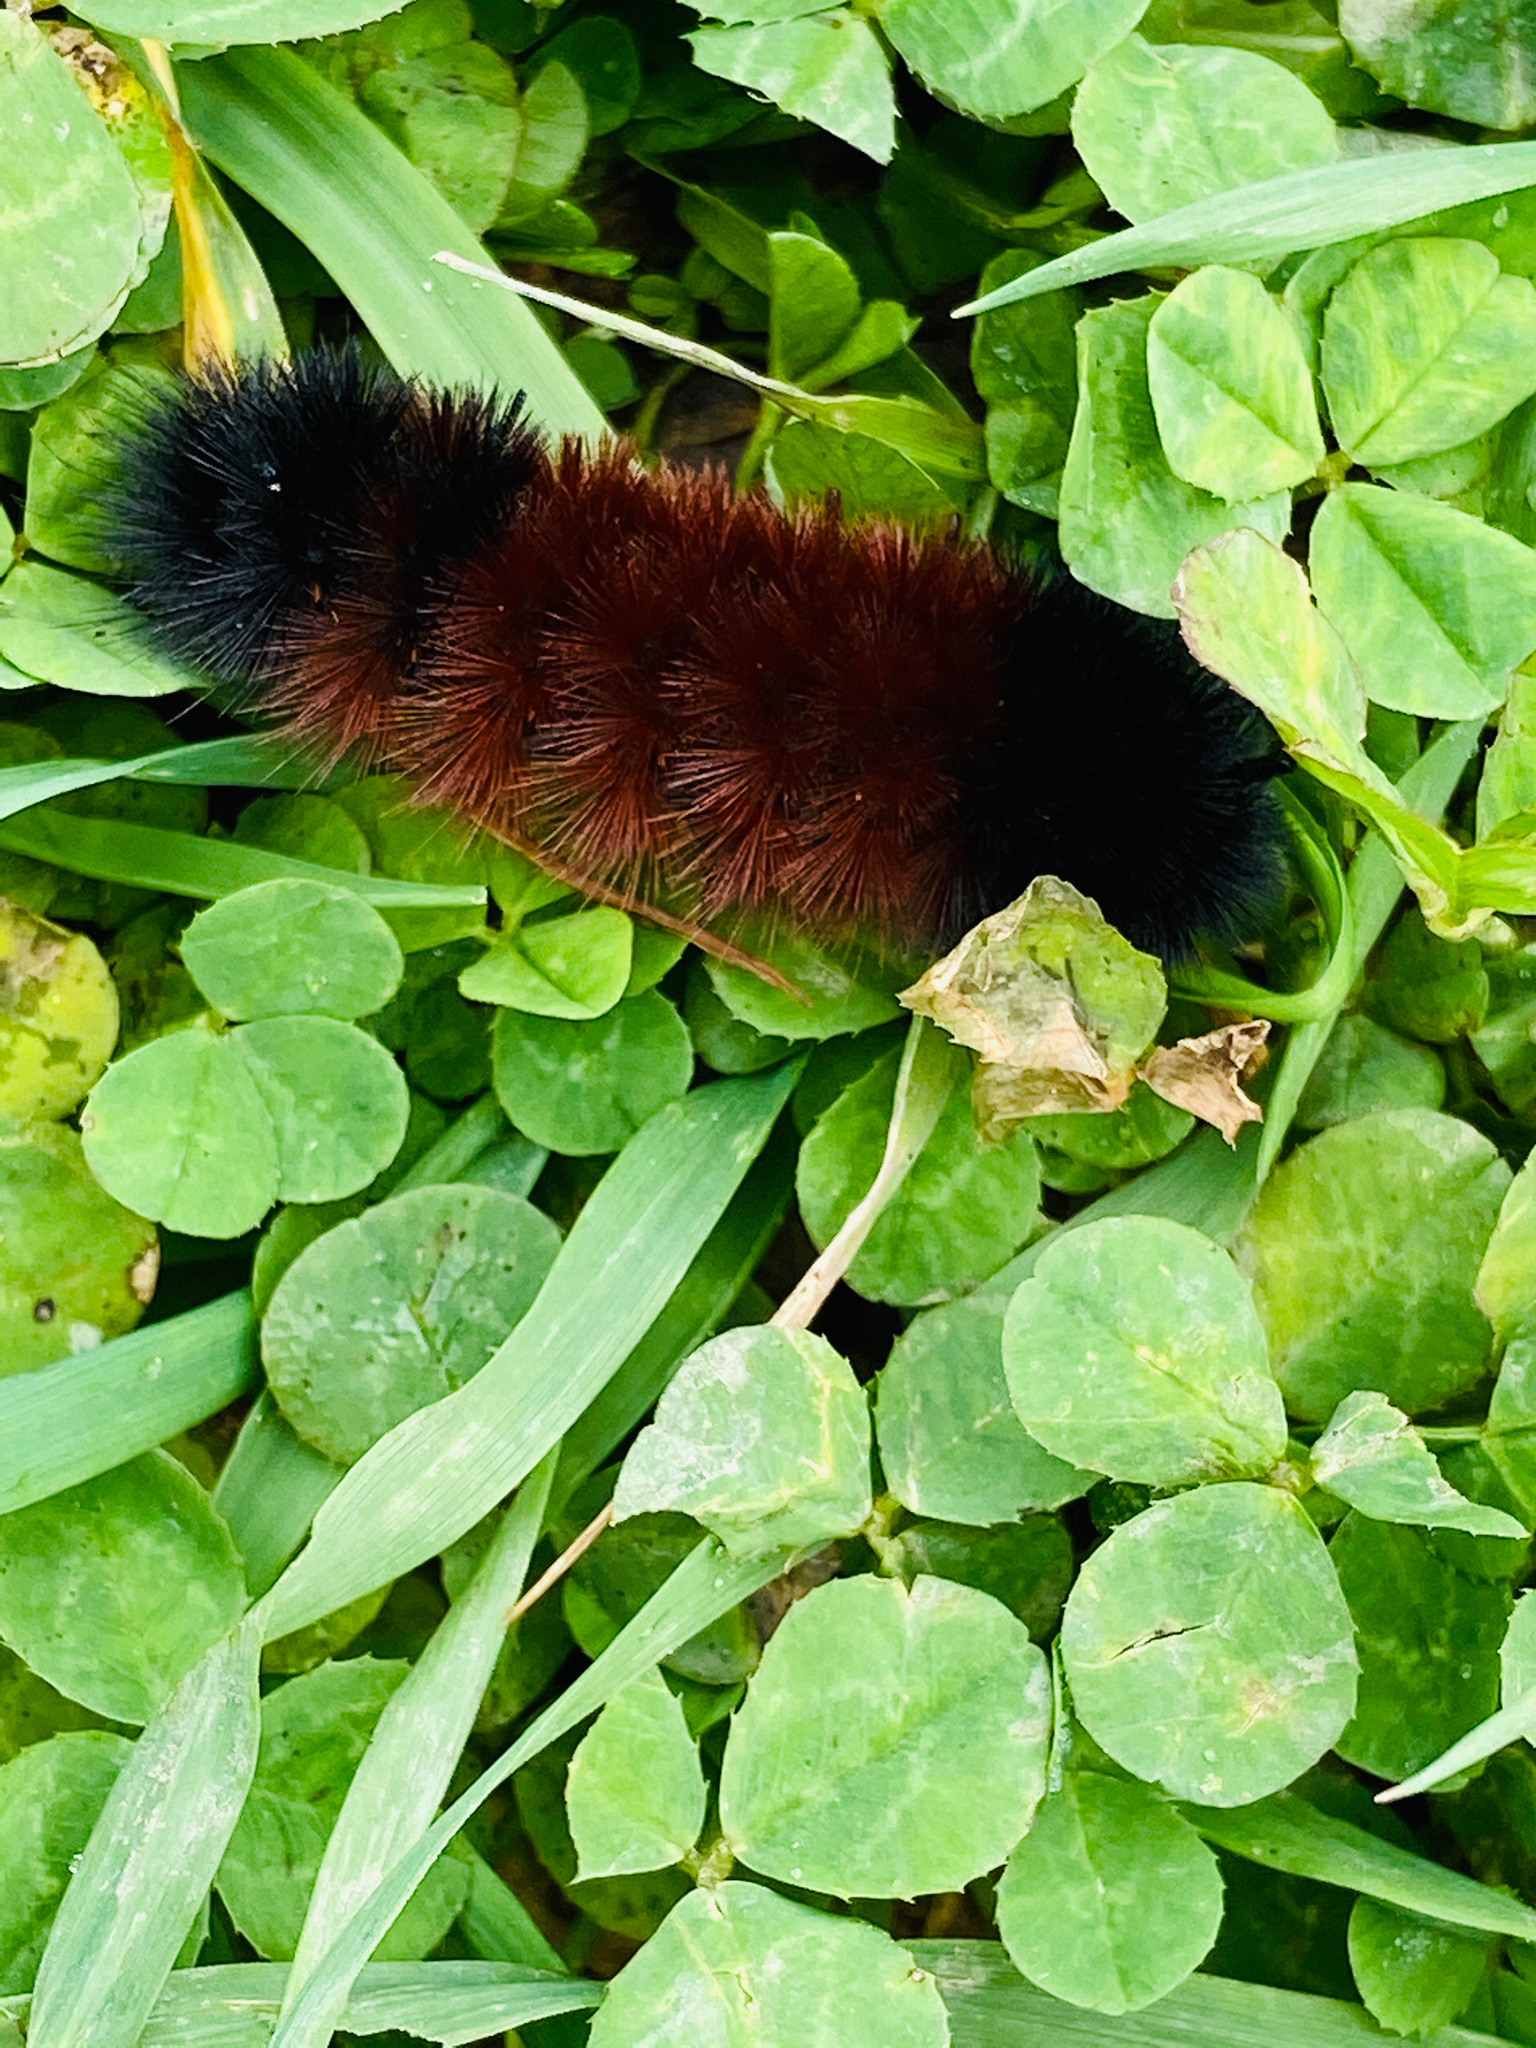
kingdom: Animalia
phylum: Arthropoda
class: Insecta
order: Lepidoptera
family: Erebidae
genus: Pyrrharctia
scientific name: Pyrrharctia isabella
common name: Isabella tiger moth
